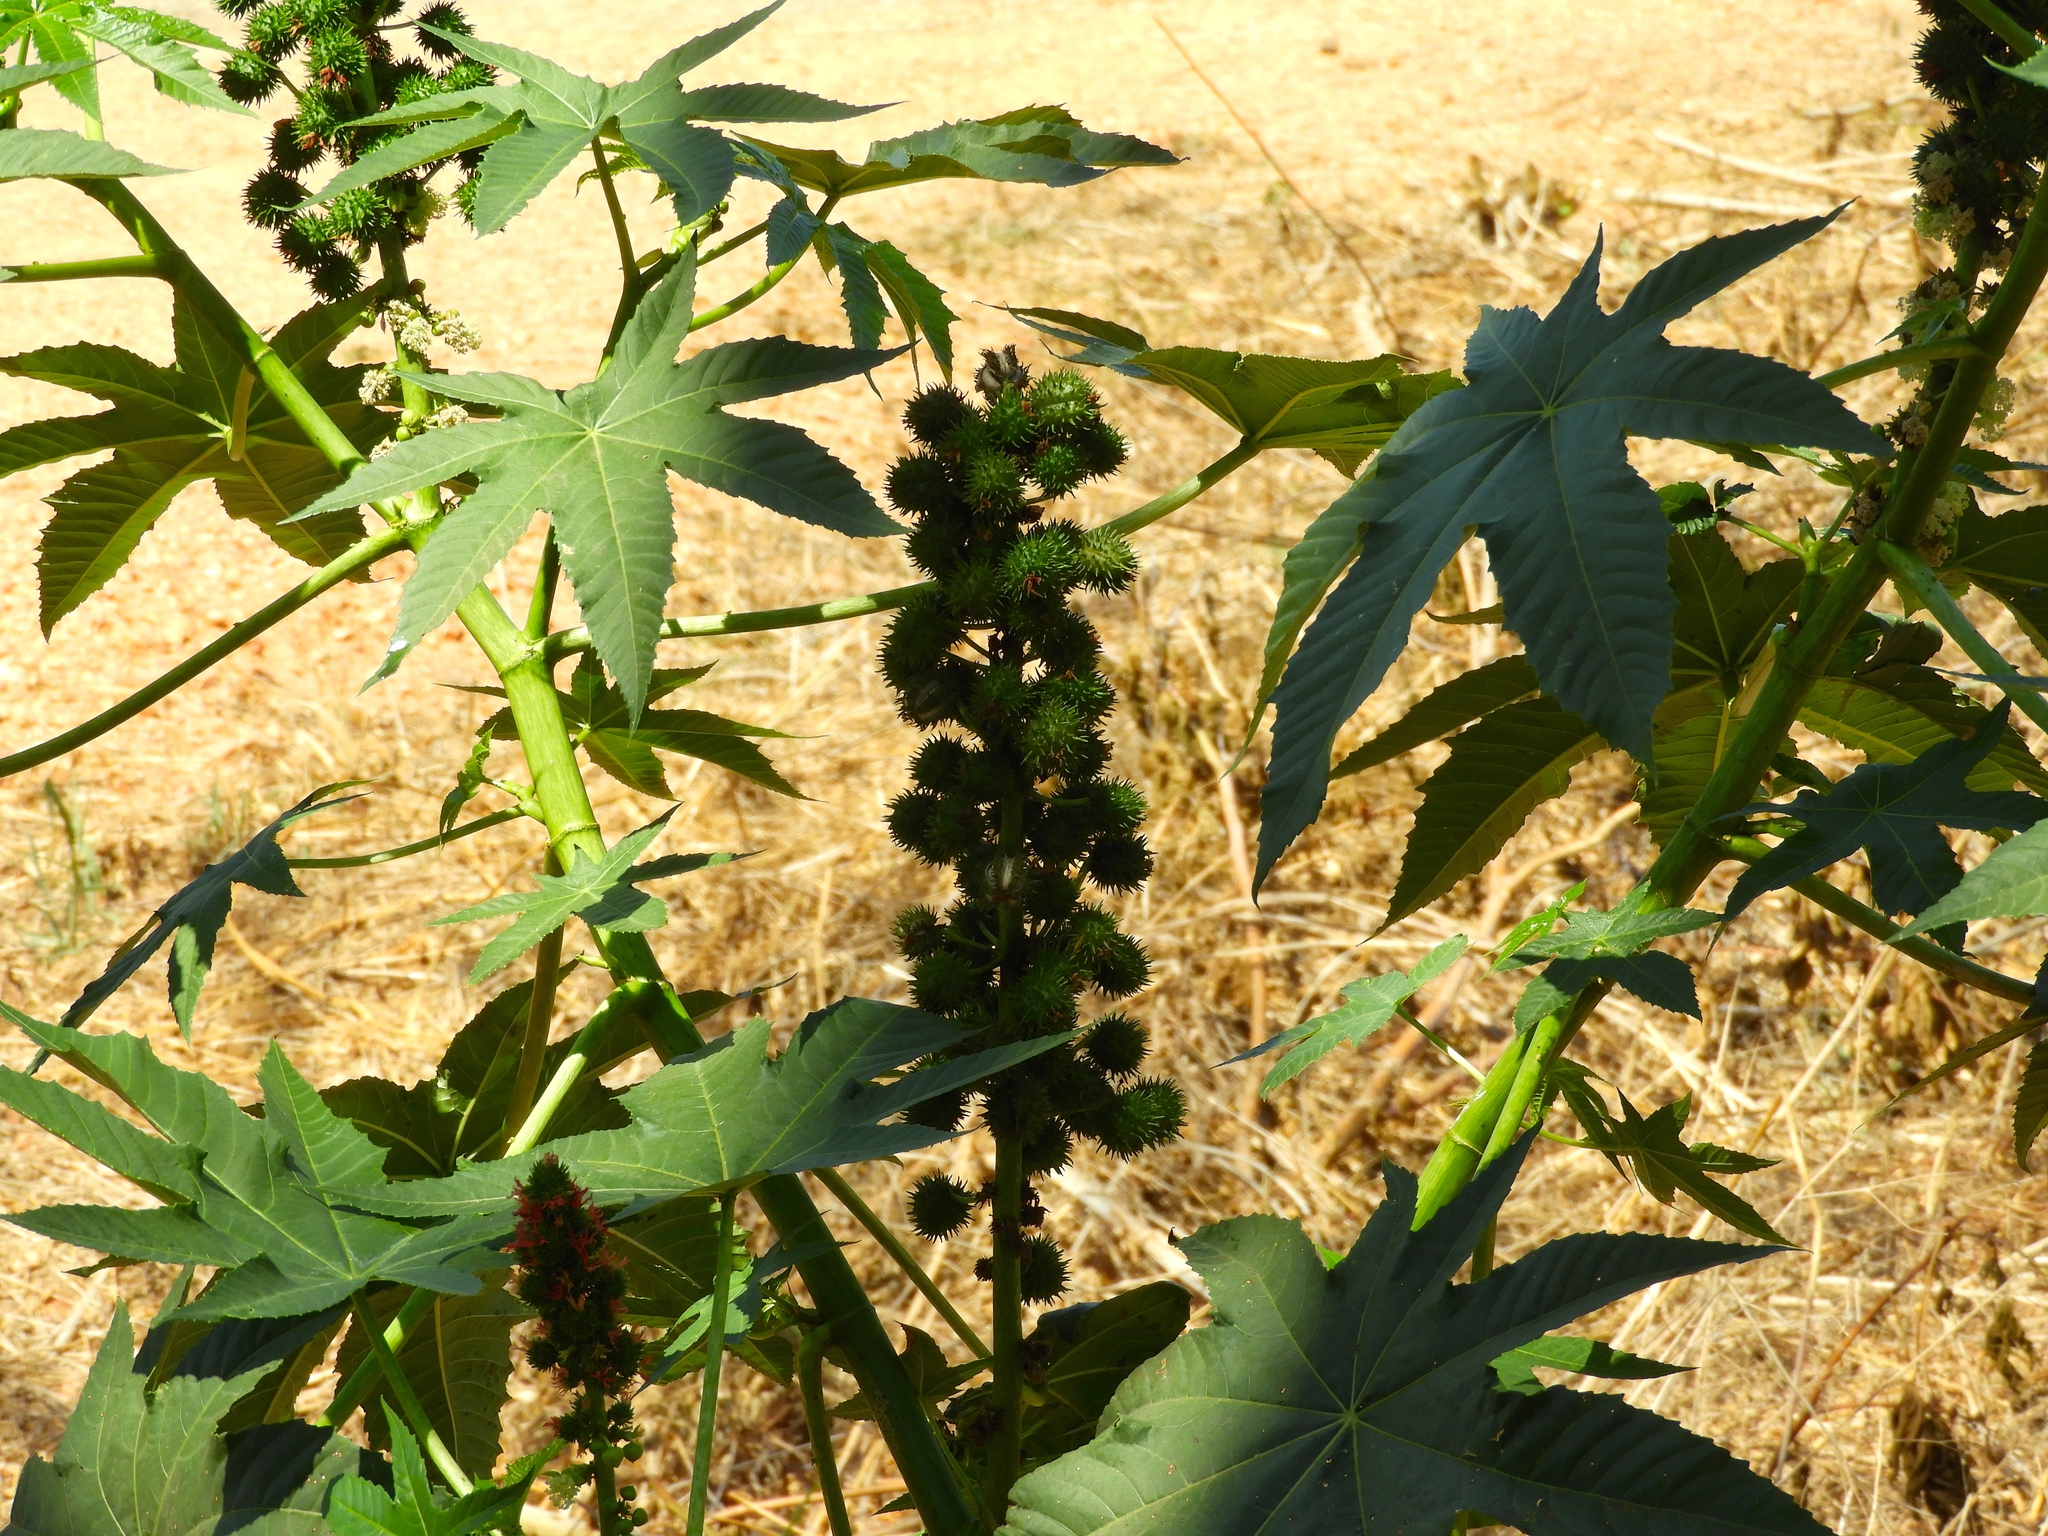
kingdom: Plantae
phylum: Tracheophyta
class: Magnoliopsida
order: Malpighiales
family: Euphorbiaceae
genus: Ricinus
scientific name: Ricinus communis
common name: Castor-oil-plant
